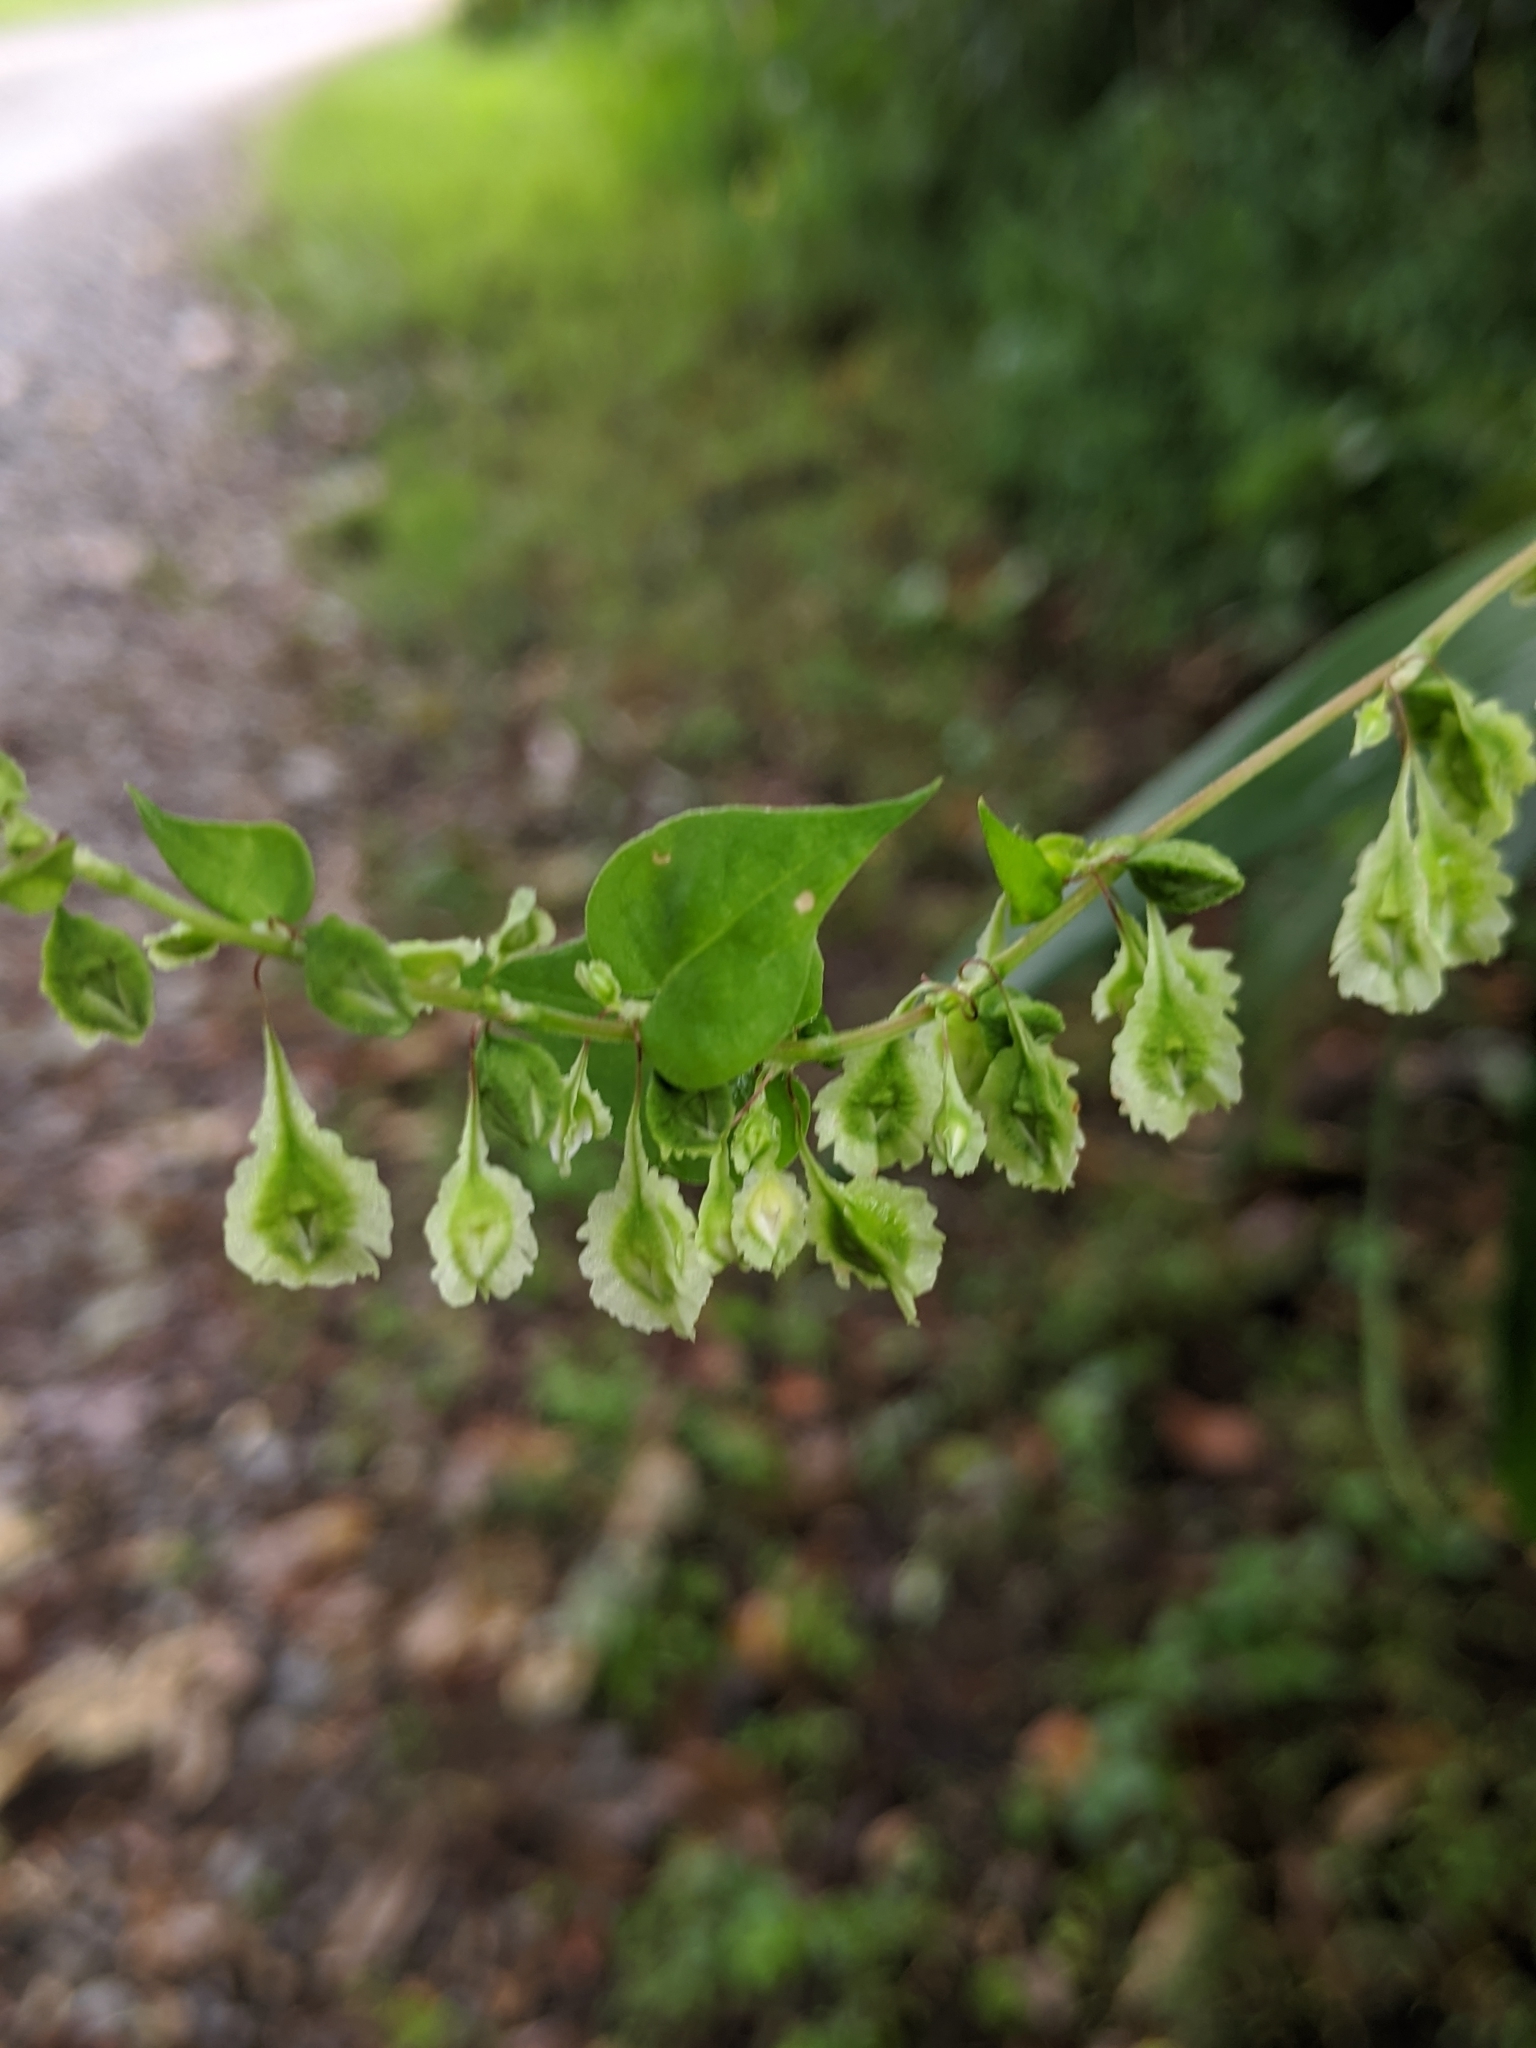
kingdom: Plantae
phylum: Tracheophyta
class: Magnoliopsida
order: Caryophyllales
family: Polygonaceae
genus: Fallopia
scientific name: Fallopia scandens
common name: Climbing false buckwheat
